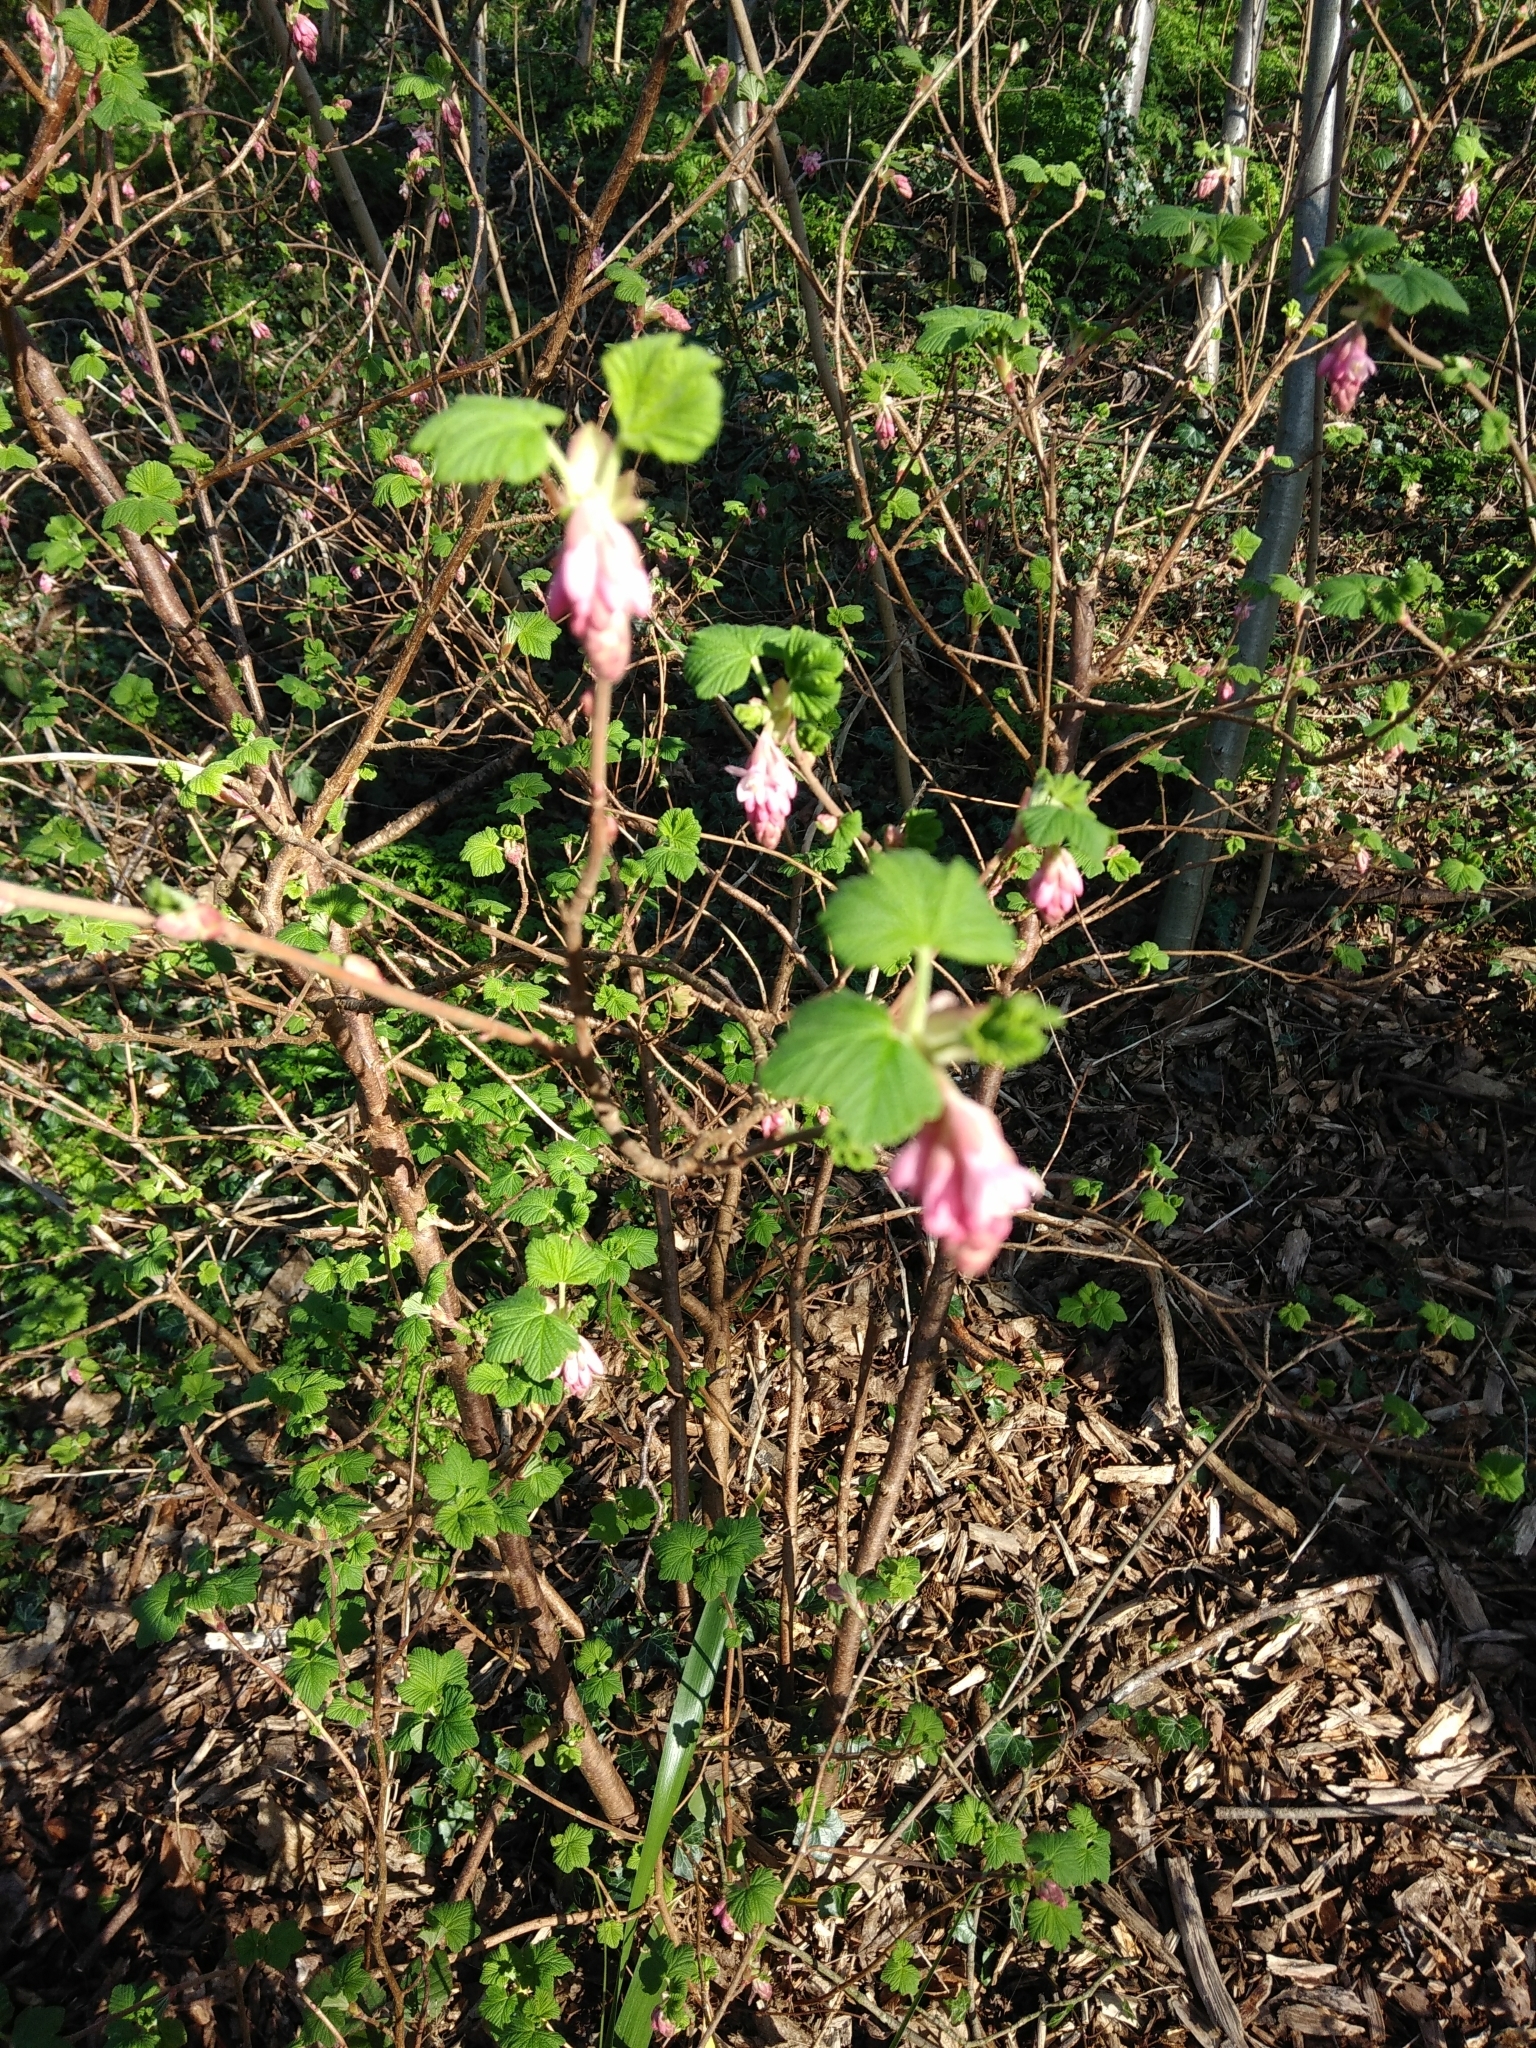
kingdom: Plantae
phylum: Tracheophyta
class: Magnoliopsida
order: Saxifragales
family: Grossulariaceae
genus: Ribes
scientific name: Ribes sanguineum
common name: Flowering currant
